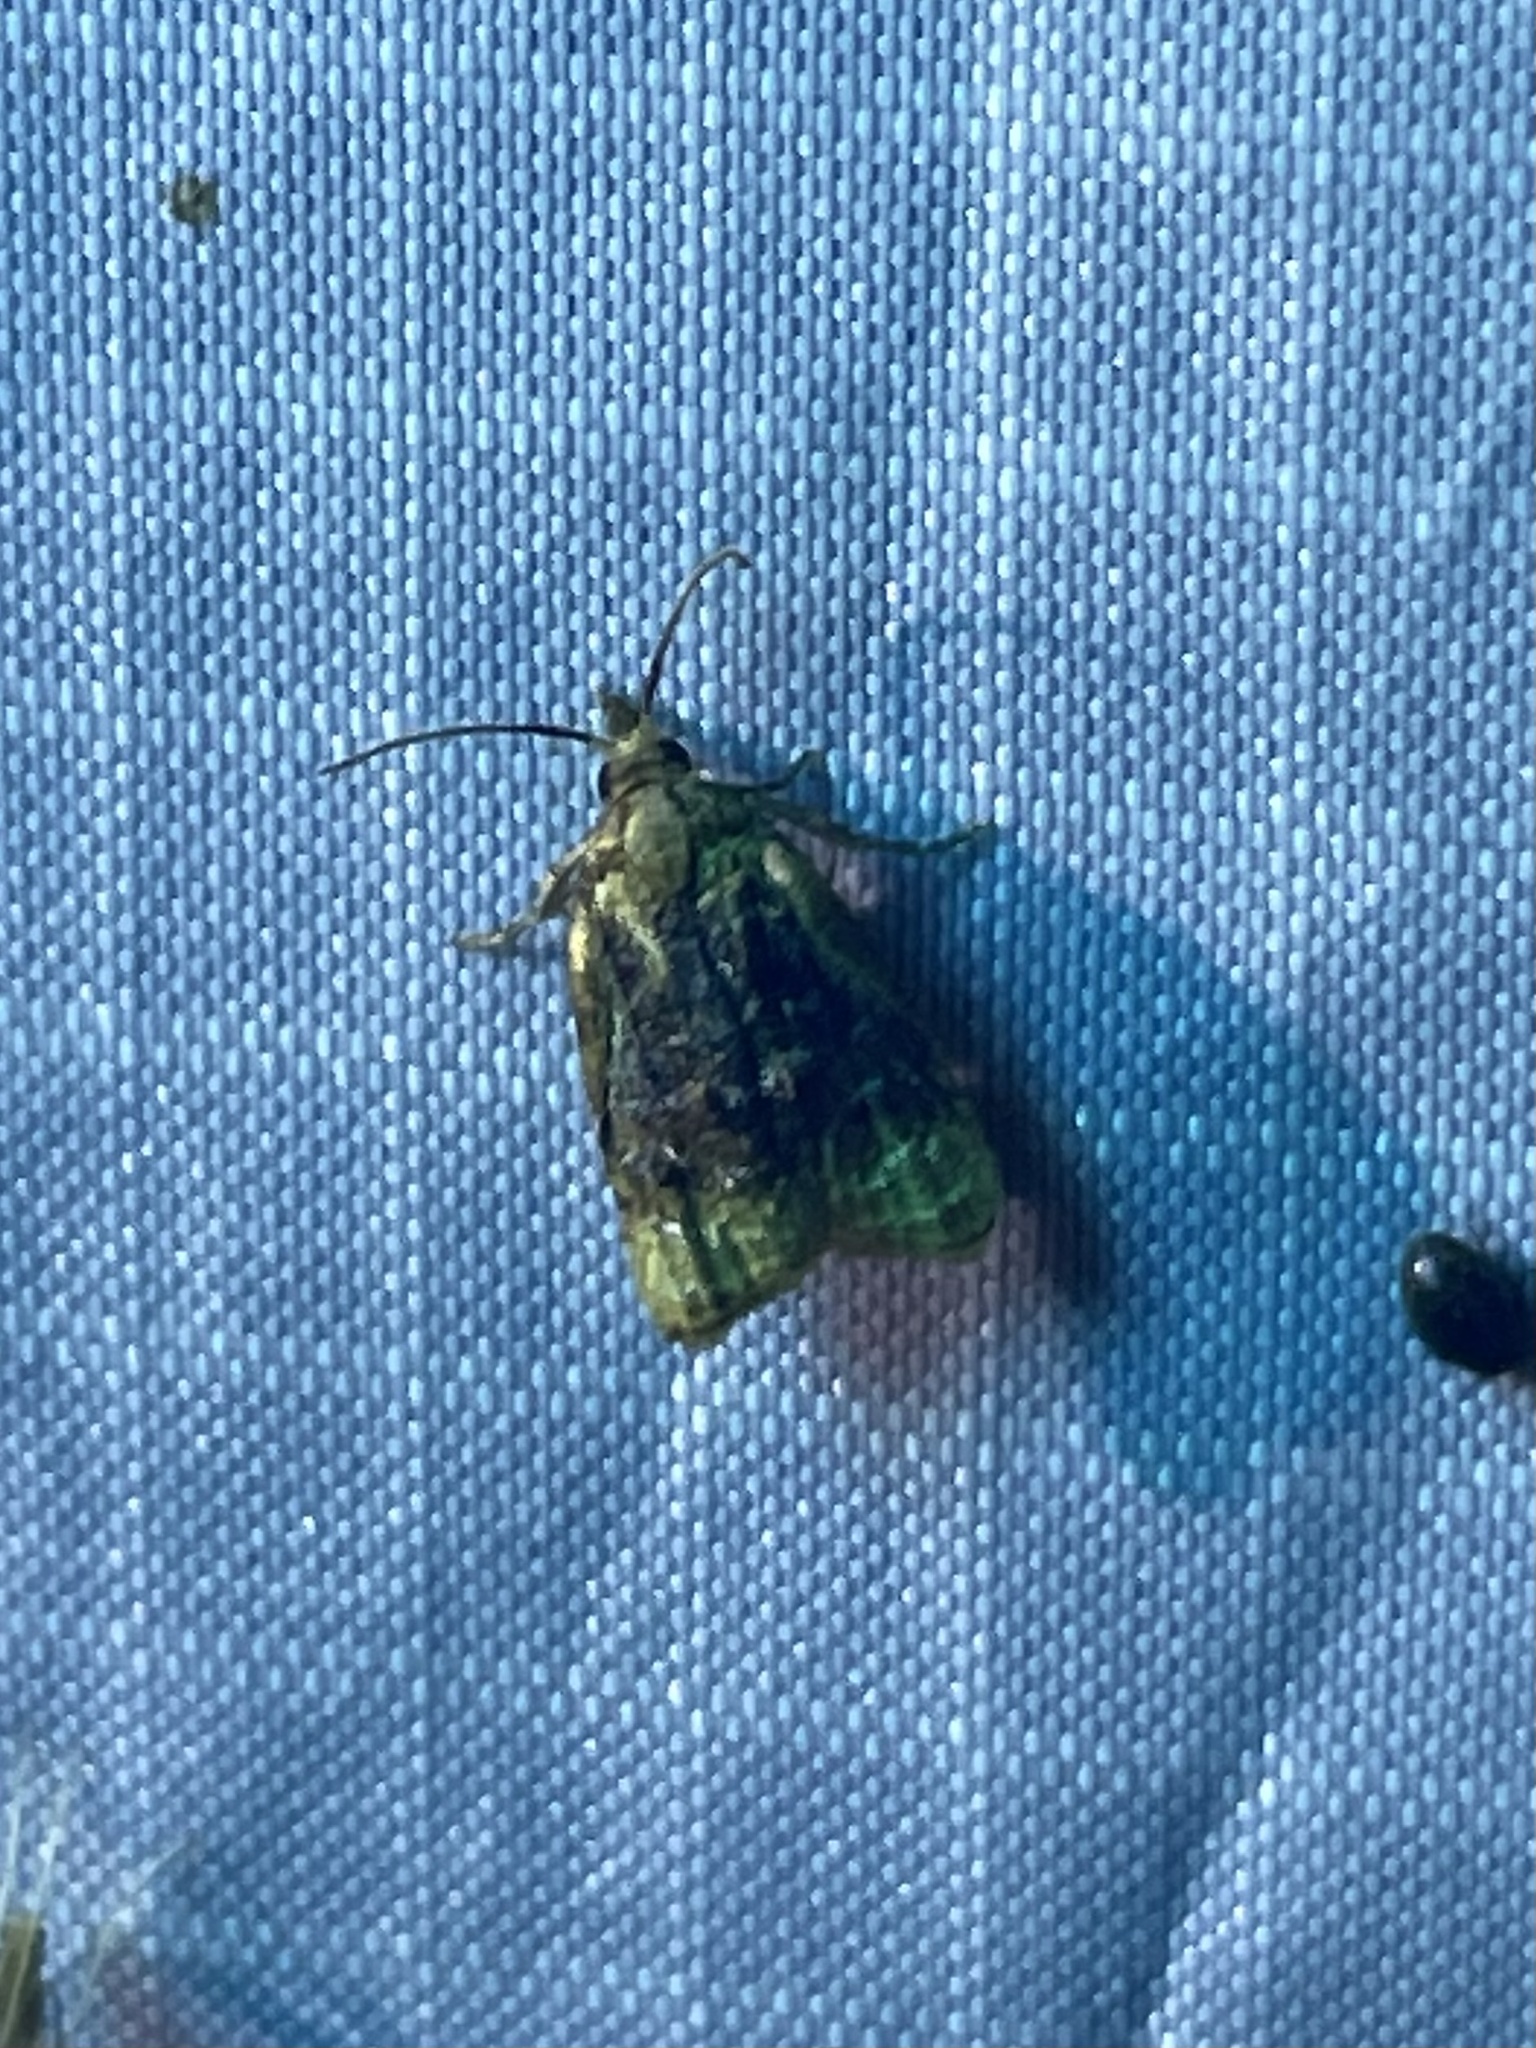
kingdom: Animalia
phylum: Arthropoda
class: Insecta
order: Lepidoptera
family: Tortricidae
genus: Platynota
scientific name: Platynota flavedana
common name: Black-shaded platynota moth
